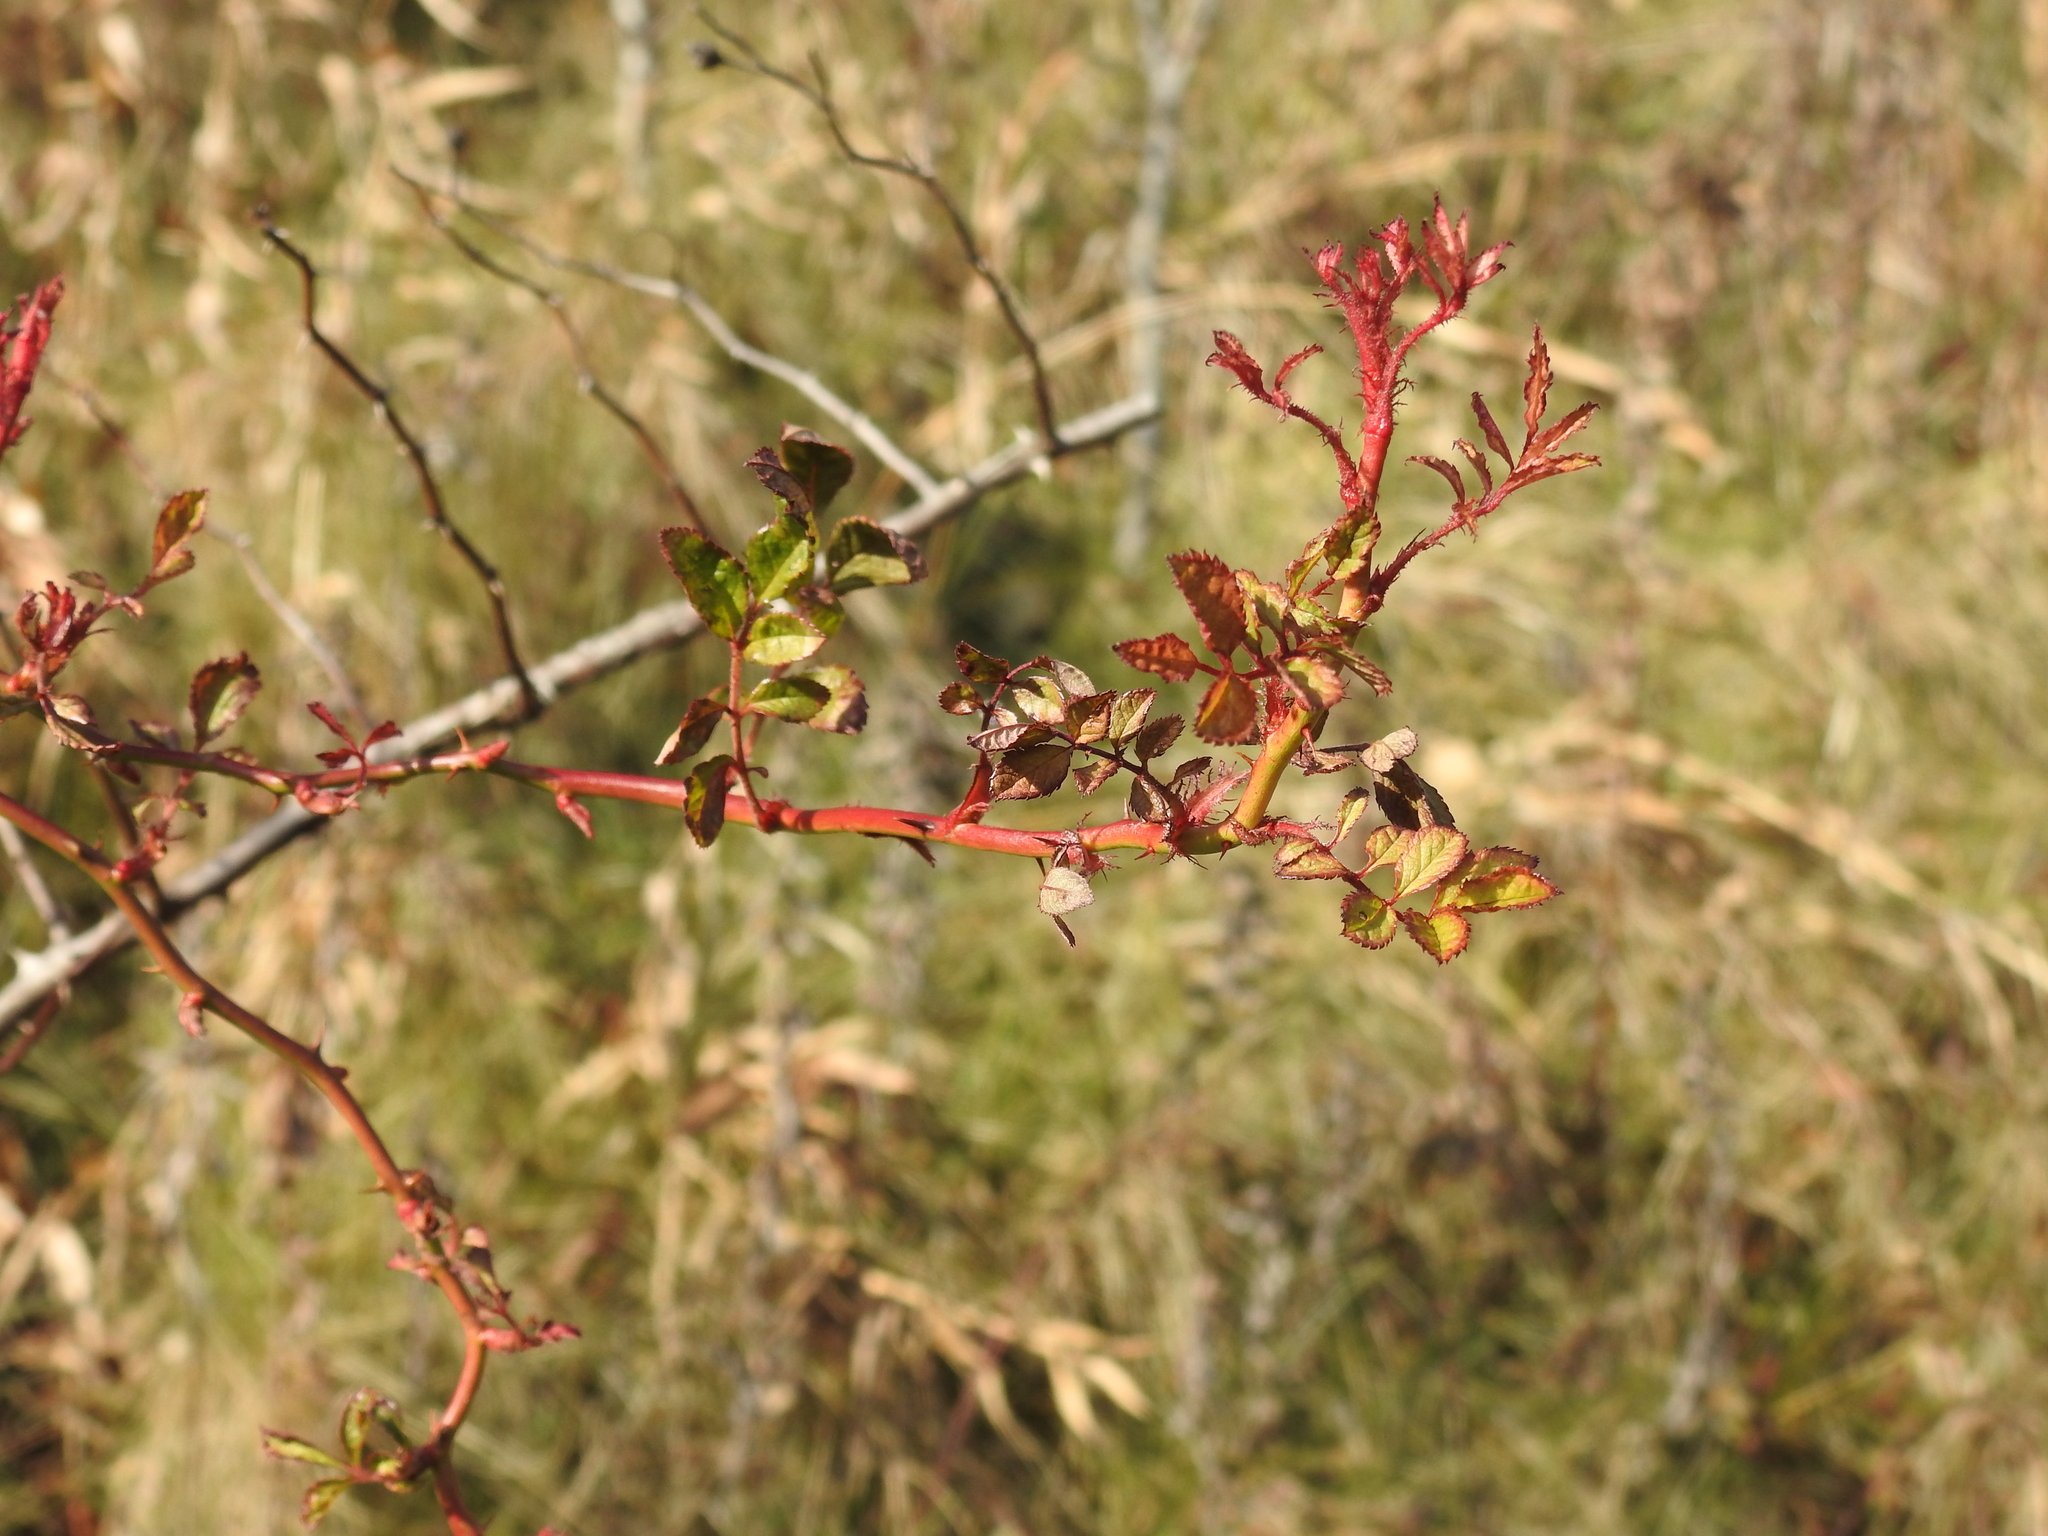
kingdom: Viruses
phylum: Negarnaviricota
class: Ellioviricetes
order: Bunyavirales
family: Fimoviridae
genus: Emaravirus
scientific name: Emaravirus rosae
